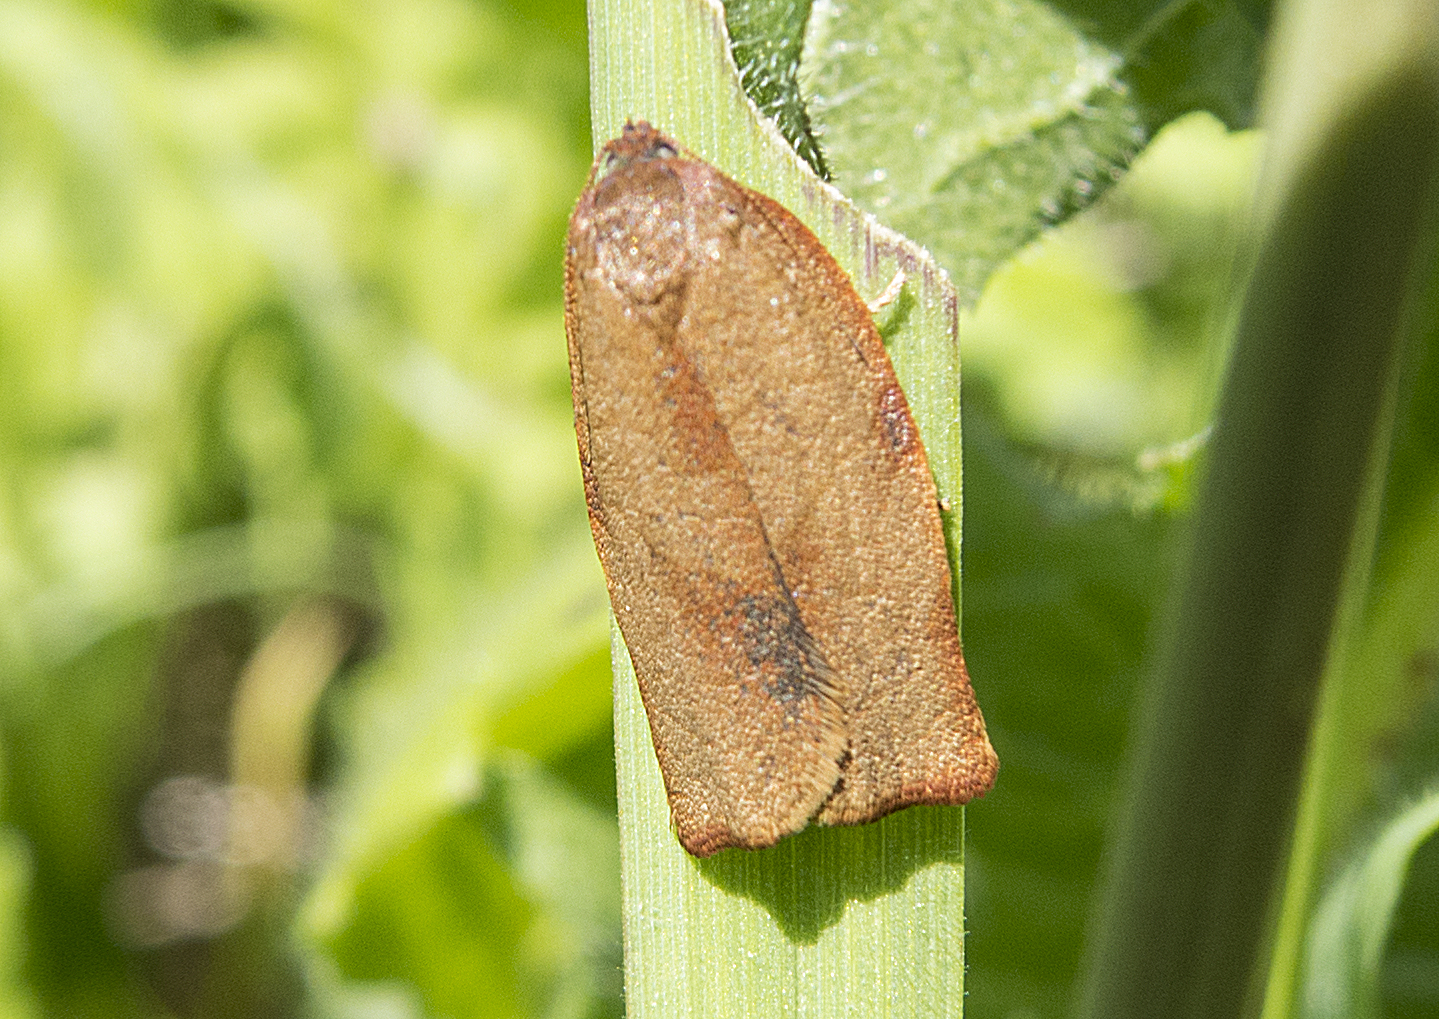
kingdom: Animalia
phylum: Arthropoda
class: Insecta
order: Lepidoptera
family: Tortricidae
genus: Cacoecimorpha
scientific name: Cacoecimorpha pronubana
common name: Carnation tortrix
